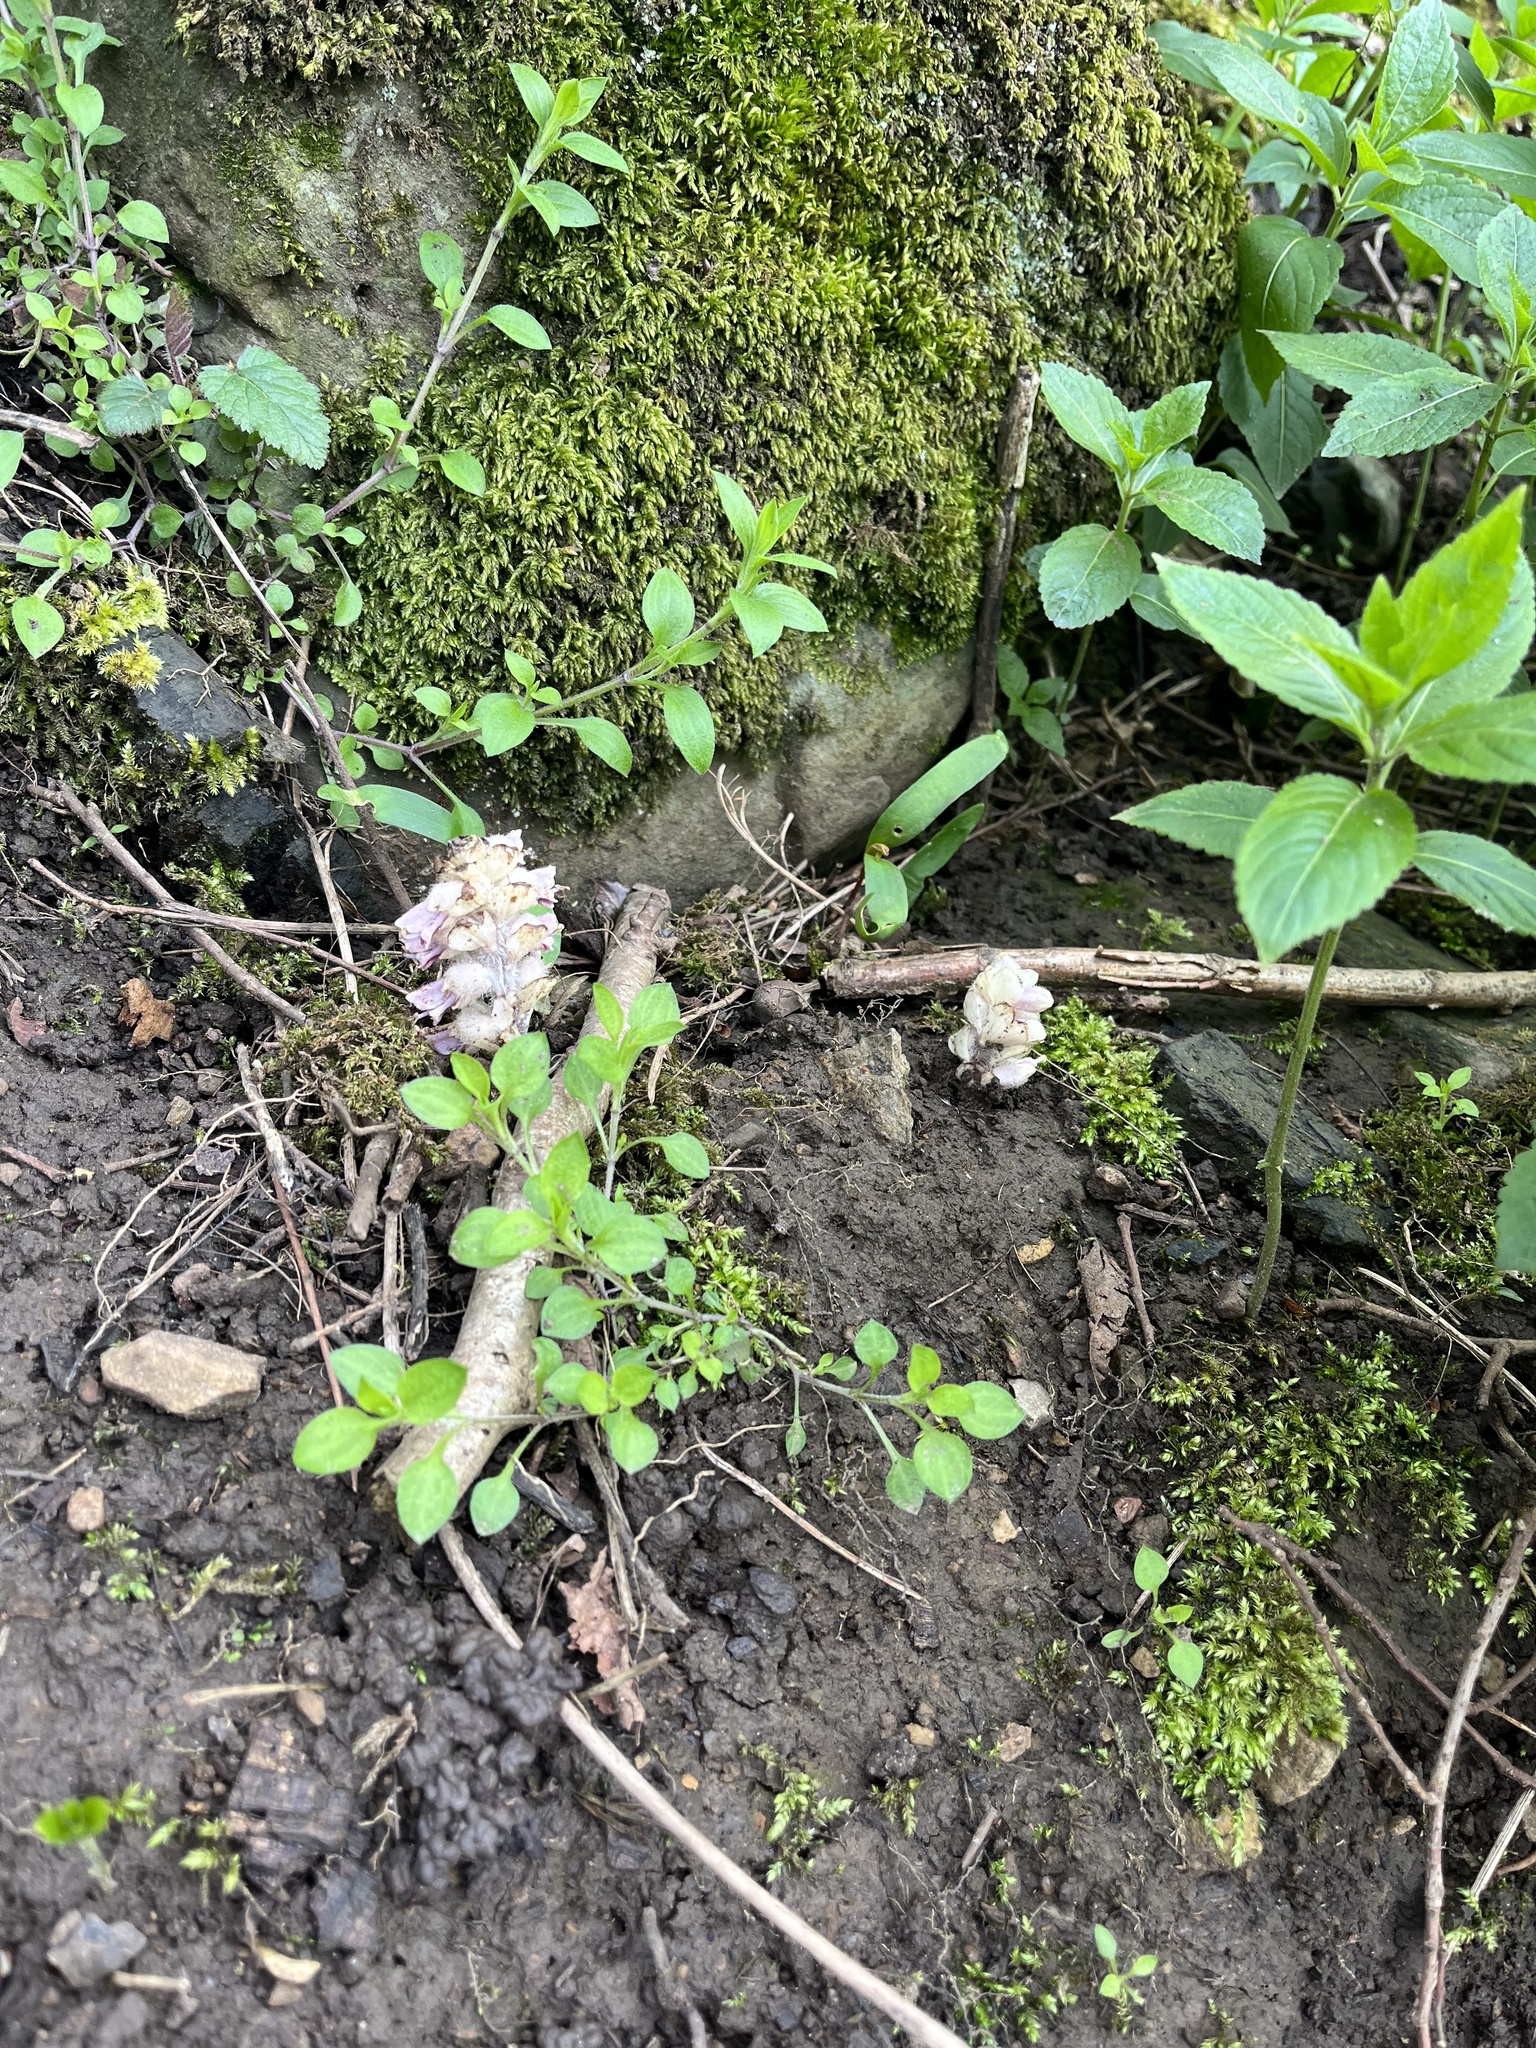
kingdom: Plantae
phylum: Tracheophyta
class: Magnoliopsida
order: Lamiales
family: Orobanchaceae
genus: Lathraea
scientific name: Lathraea squamaria
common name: Toothwort
